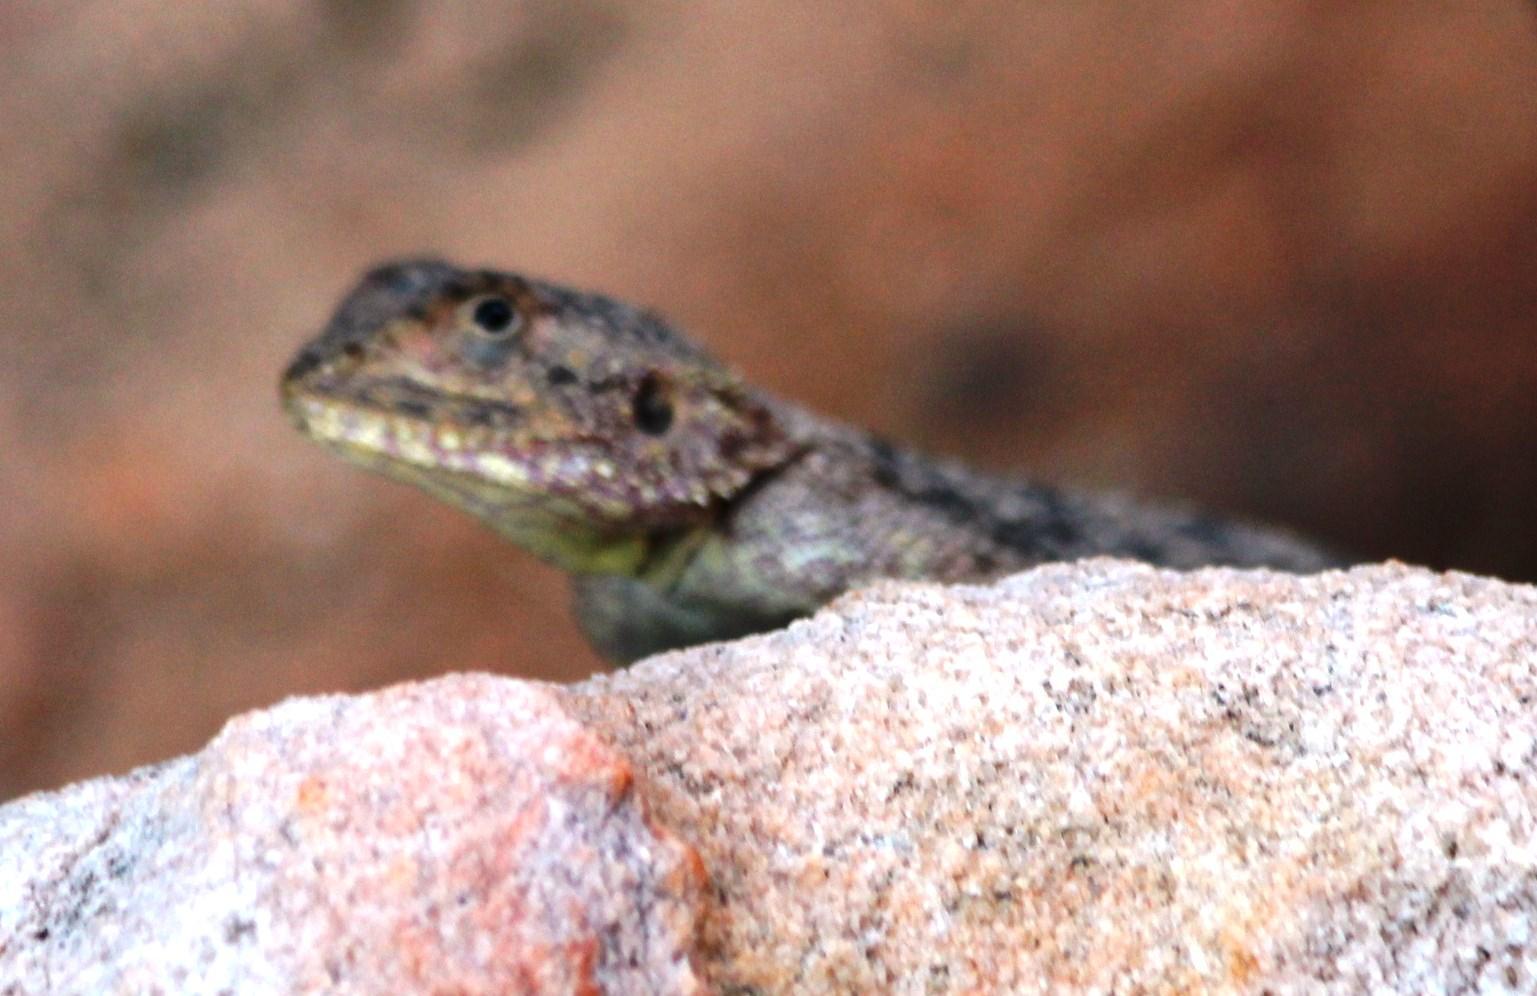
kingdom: Animalia
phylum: Chordata
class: Squamata
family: Agamidae
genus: Agama
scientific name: Agama atra
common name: Southern african rock agama
